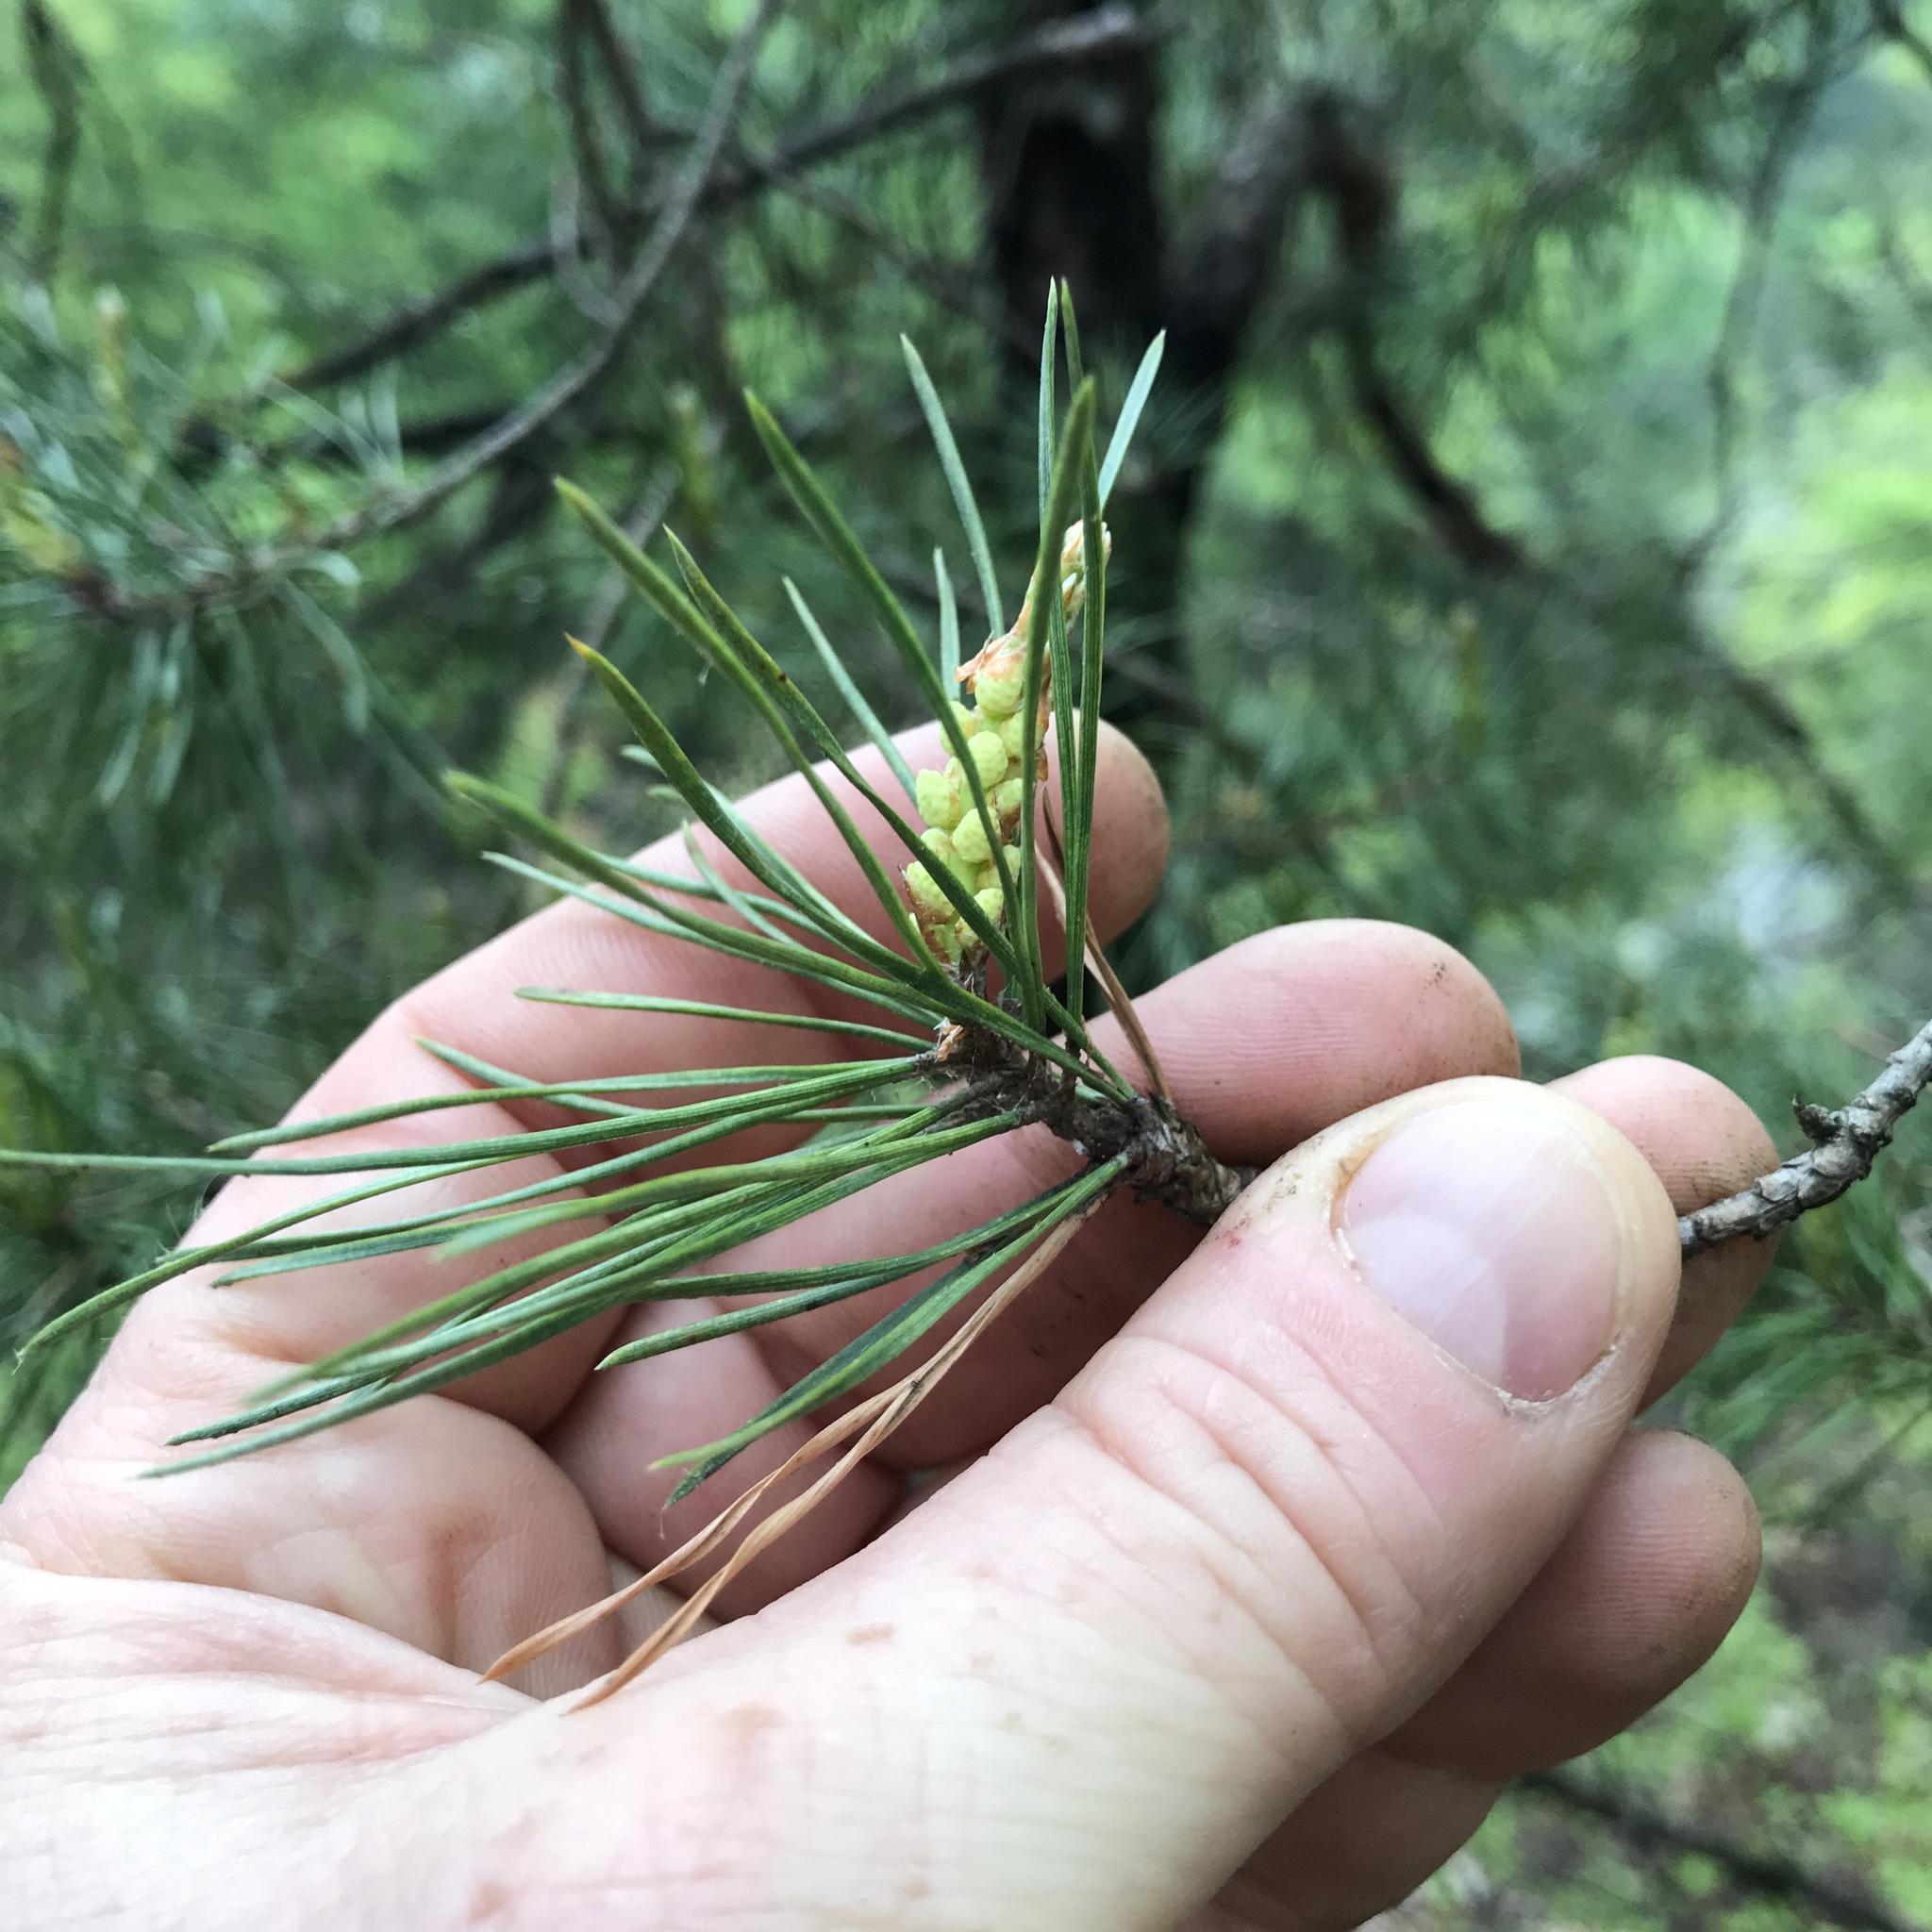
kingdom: Plantae
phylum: Tracheophyta
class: Pinopsida
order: Pinales
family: Pinaceae
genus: Pinus
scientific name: Pinus sylvestris
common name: Scots pine
